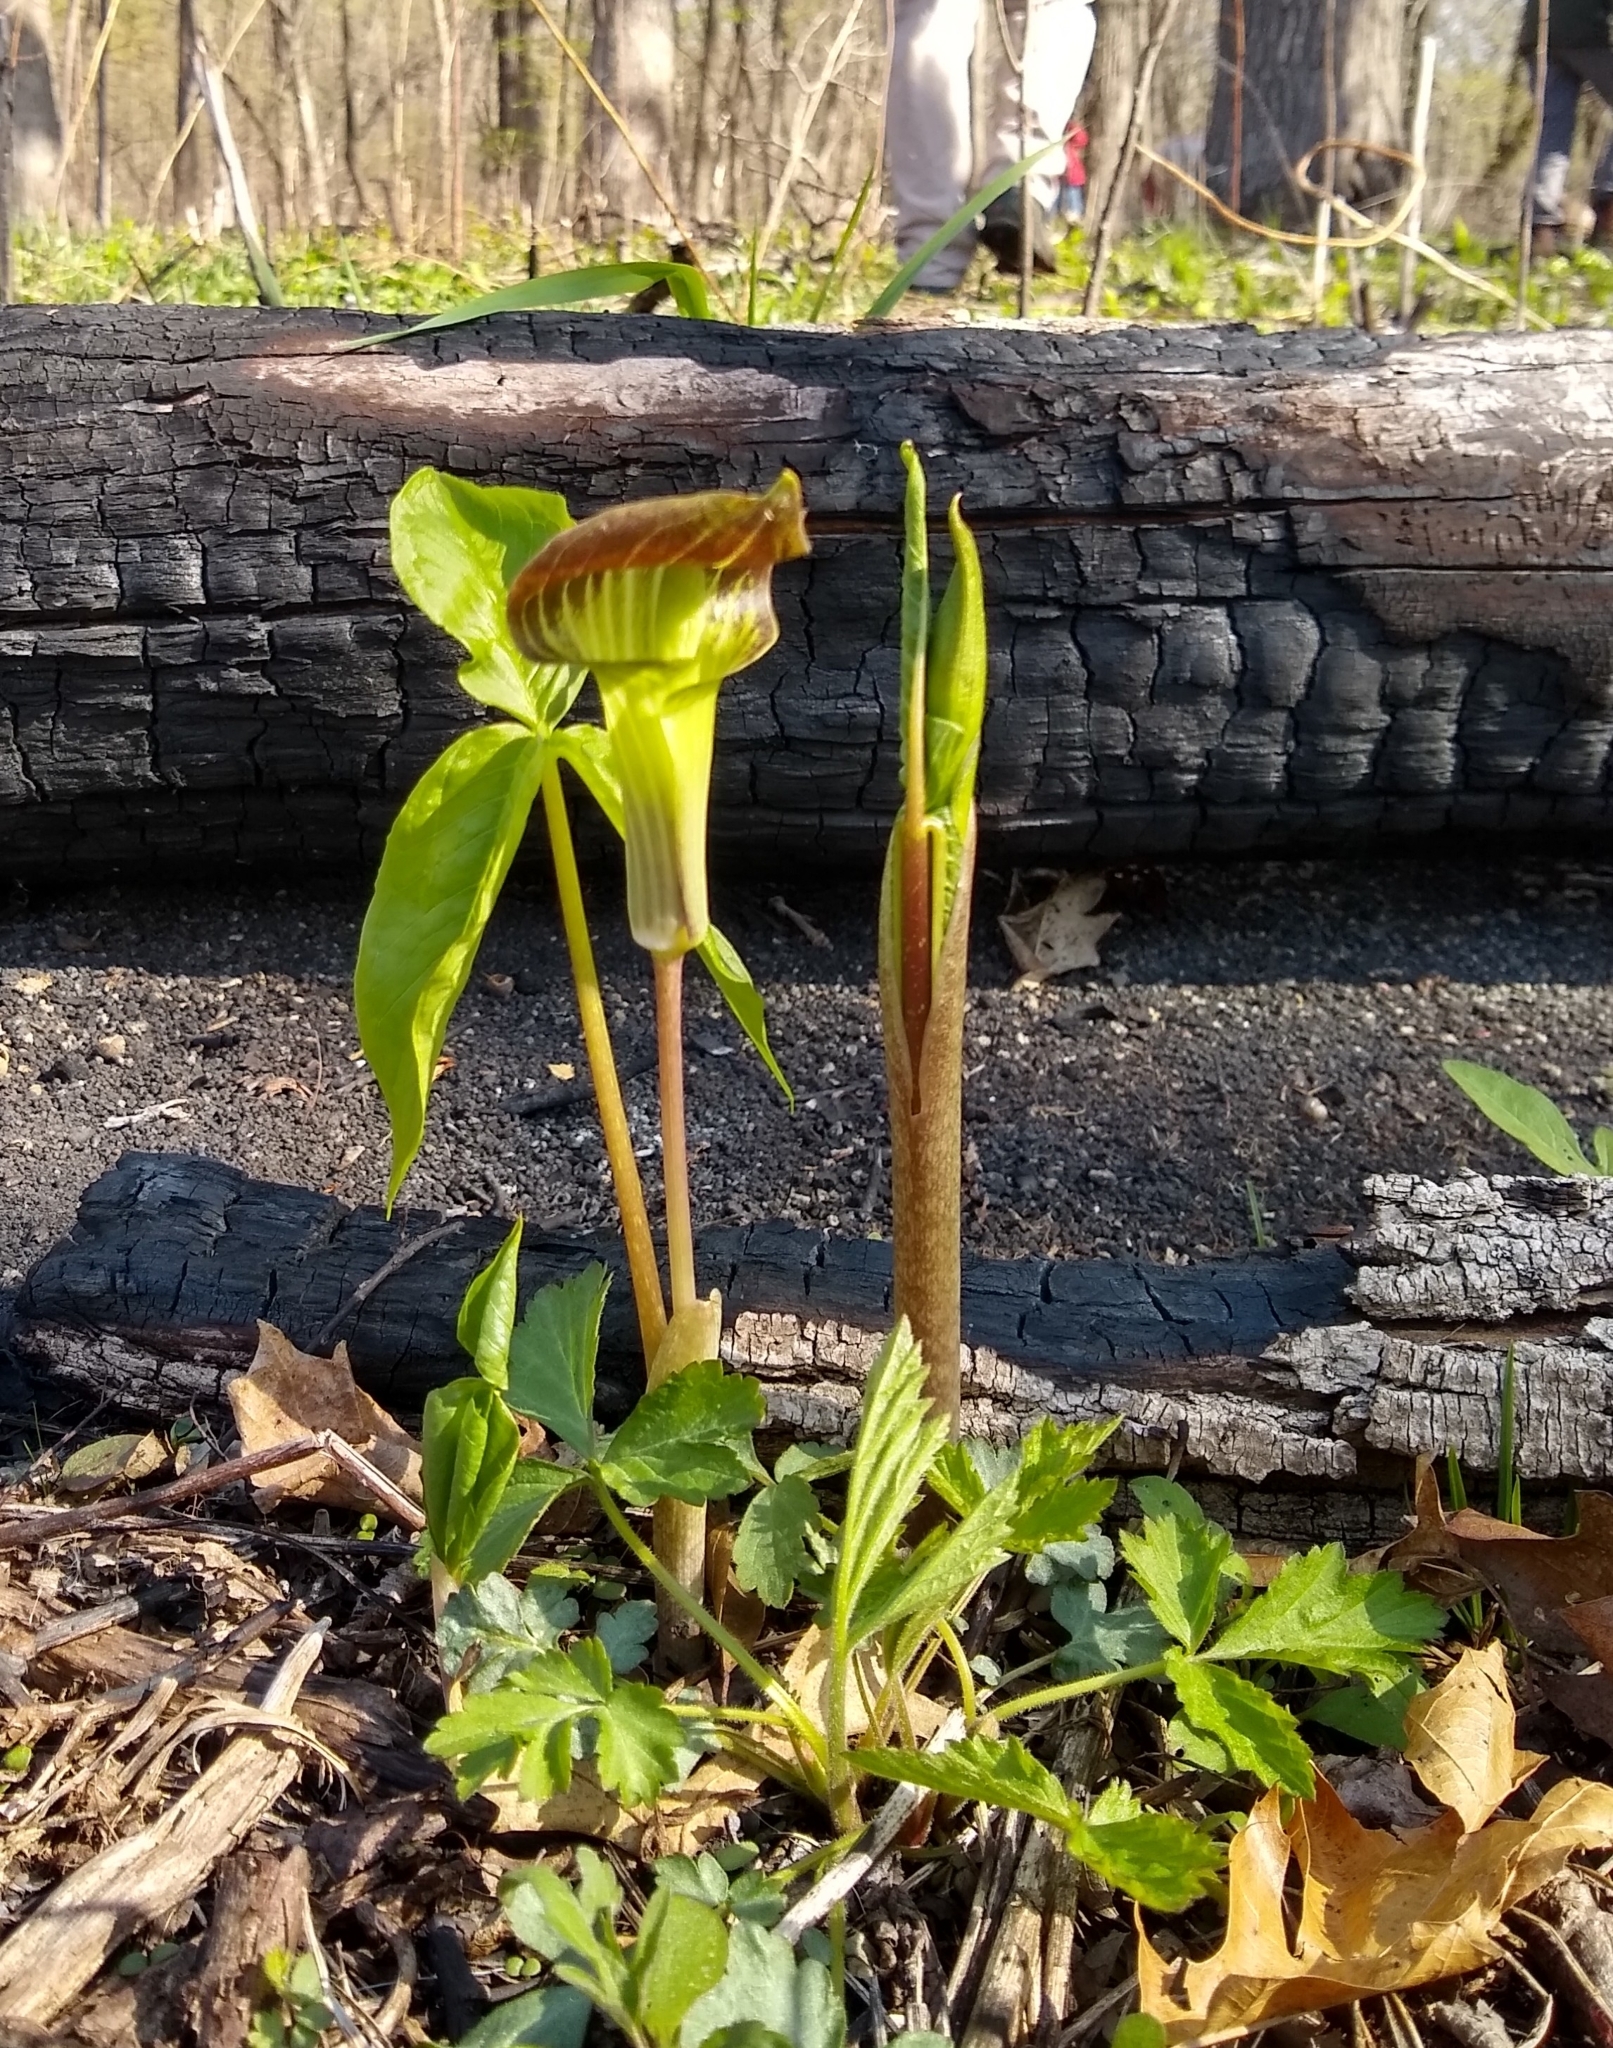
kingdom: Plantae
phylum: Tracheophyta
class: Liliopsida
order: Alismatales
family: Araceae
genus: Arisaema
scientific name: Arisaema triphyllum
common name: Jack-in-the-pulpit
